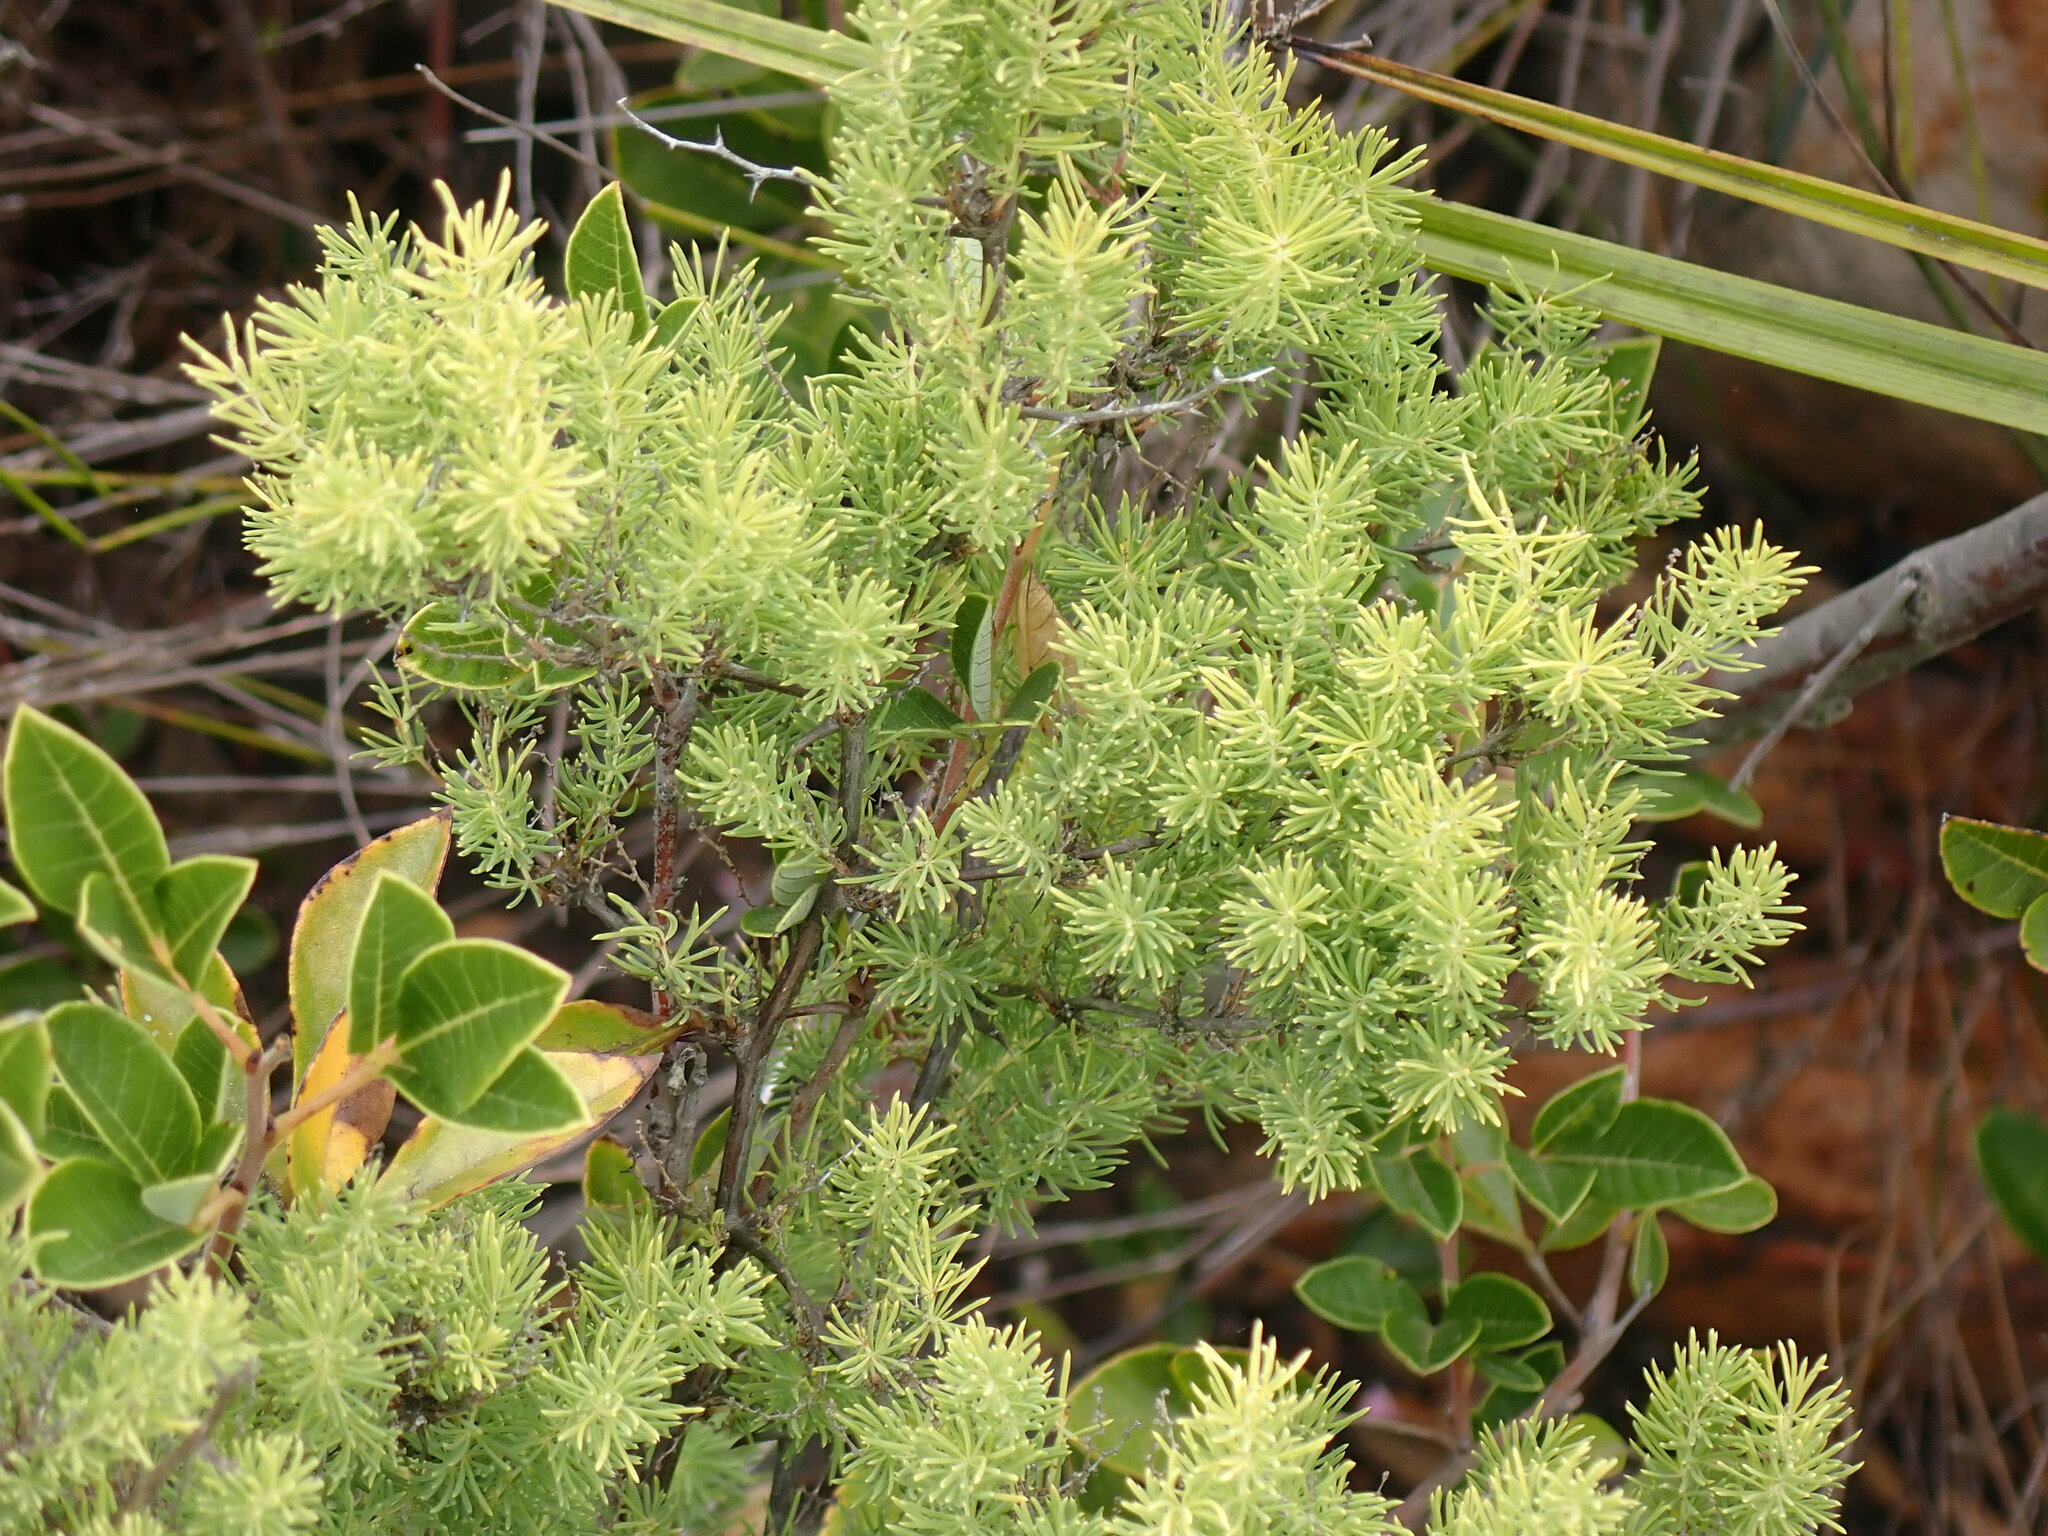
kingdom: Plantae
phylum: Tracheophyta
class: Liliopsida
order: Asparagales
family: Asparagaceae
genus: Asparagus
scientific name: Asparagus rubicundus
